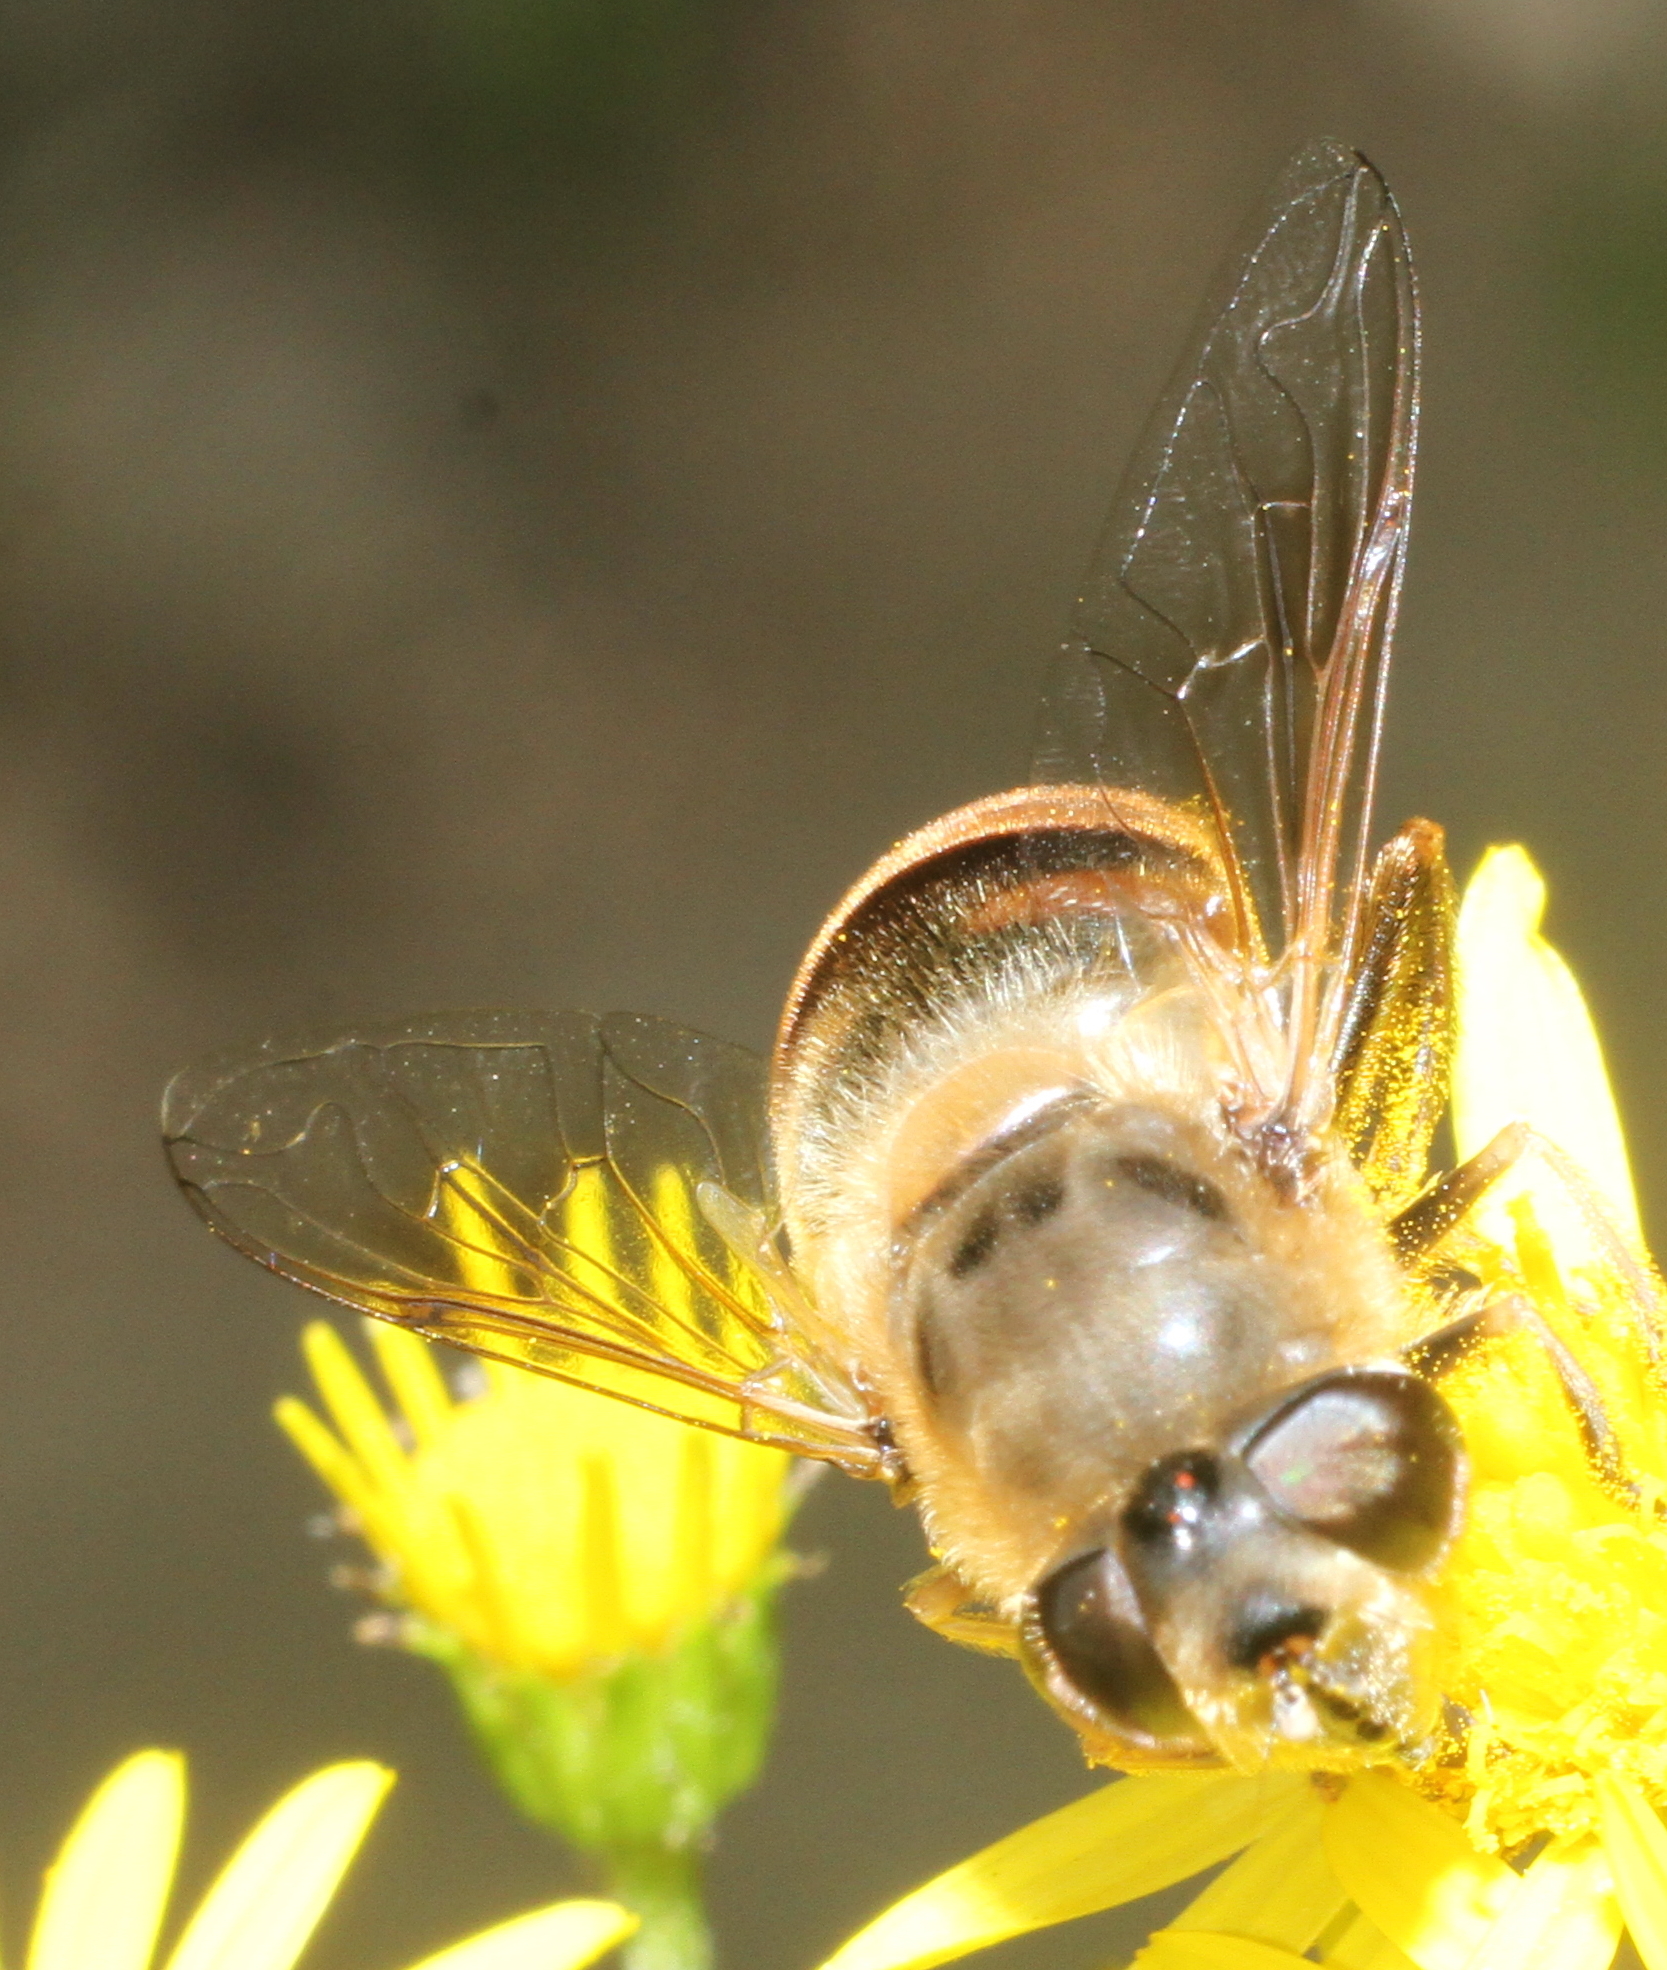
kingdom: Animalia
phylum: Arthropoda
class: Insecta
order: Diptera
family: Syrphidae
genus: Eristalis
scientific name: Eristalis tenax
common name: Drone fly
